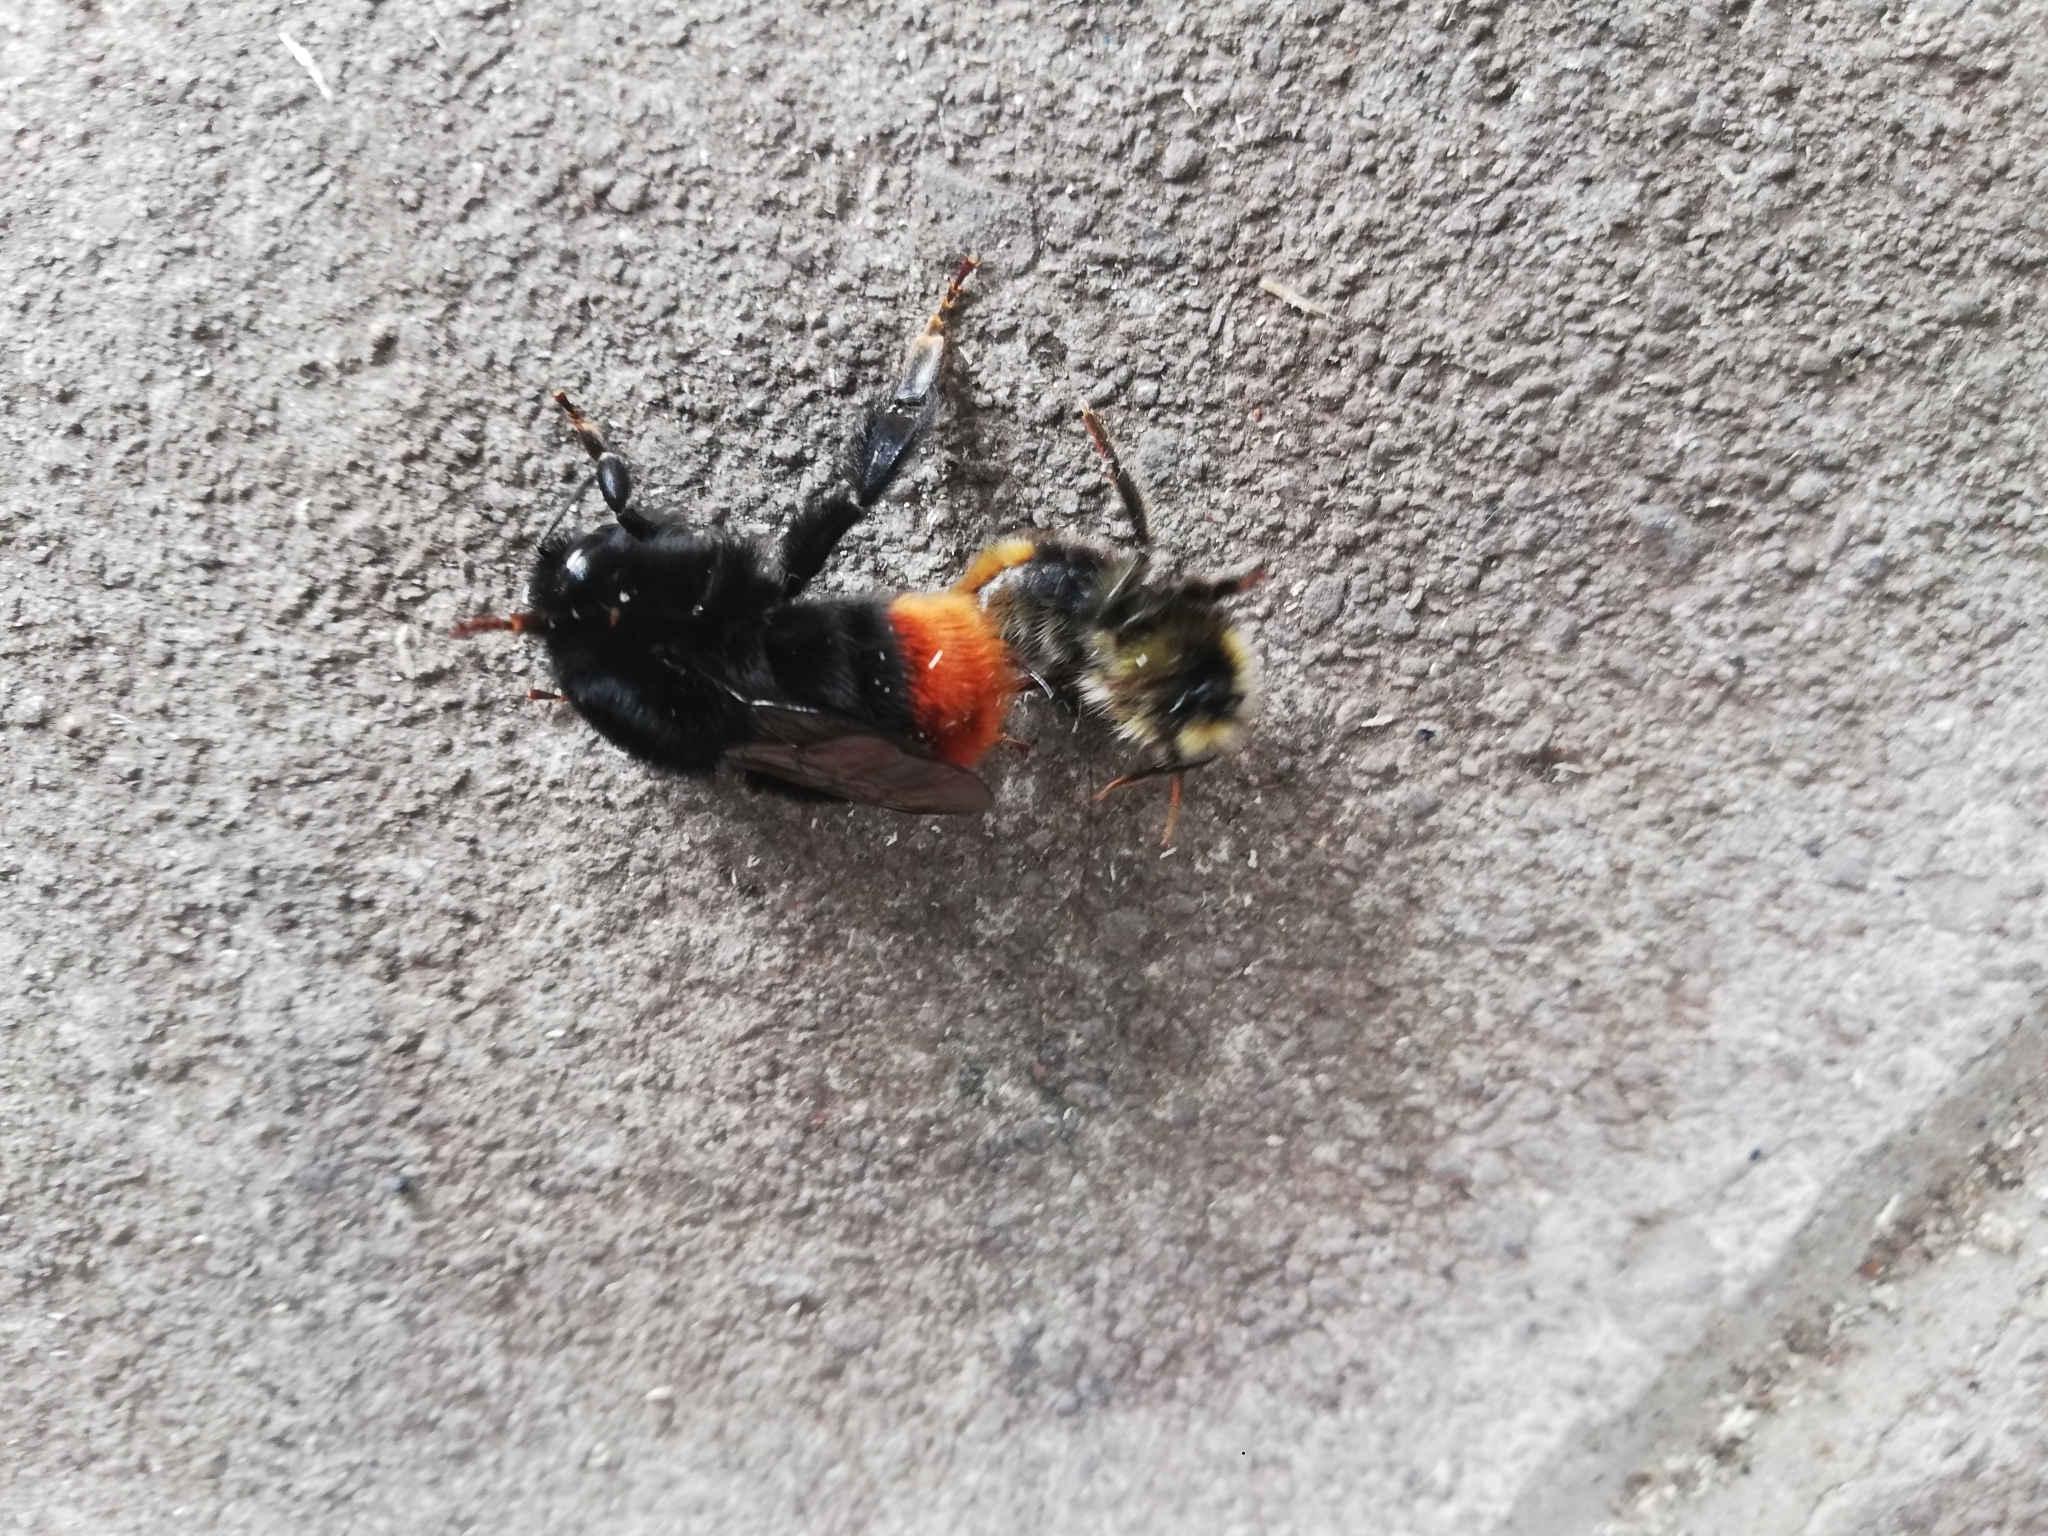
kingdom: Animalia
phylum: Arthropoda
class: Insecta
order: Hymenoptera
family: Apidae
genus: Bombus
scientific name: Bombus lapidarius
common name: Large red-tailed humble-bee
